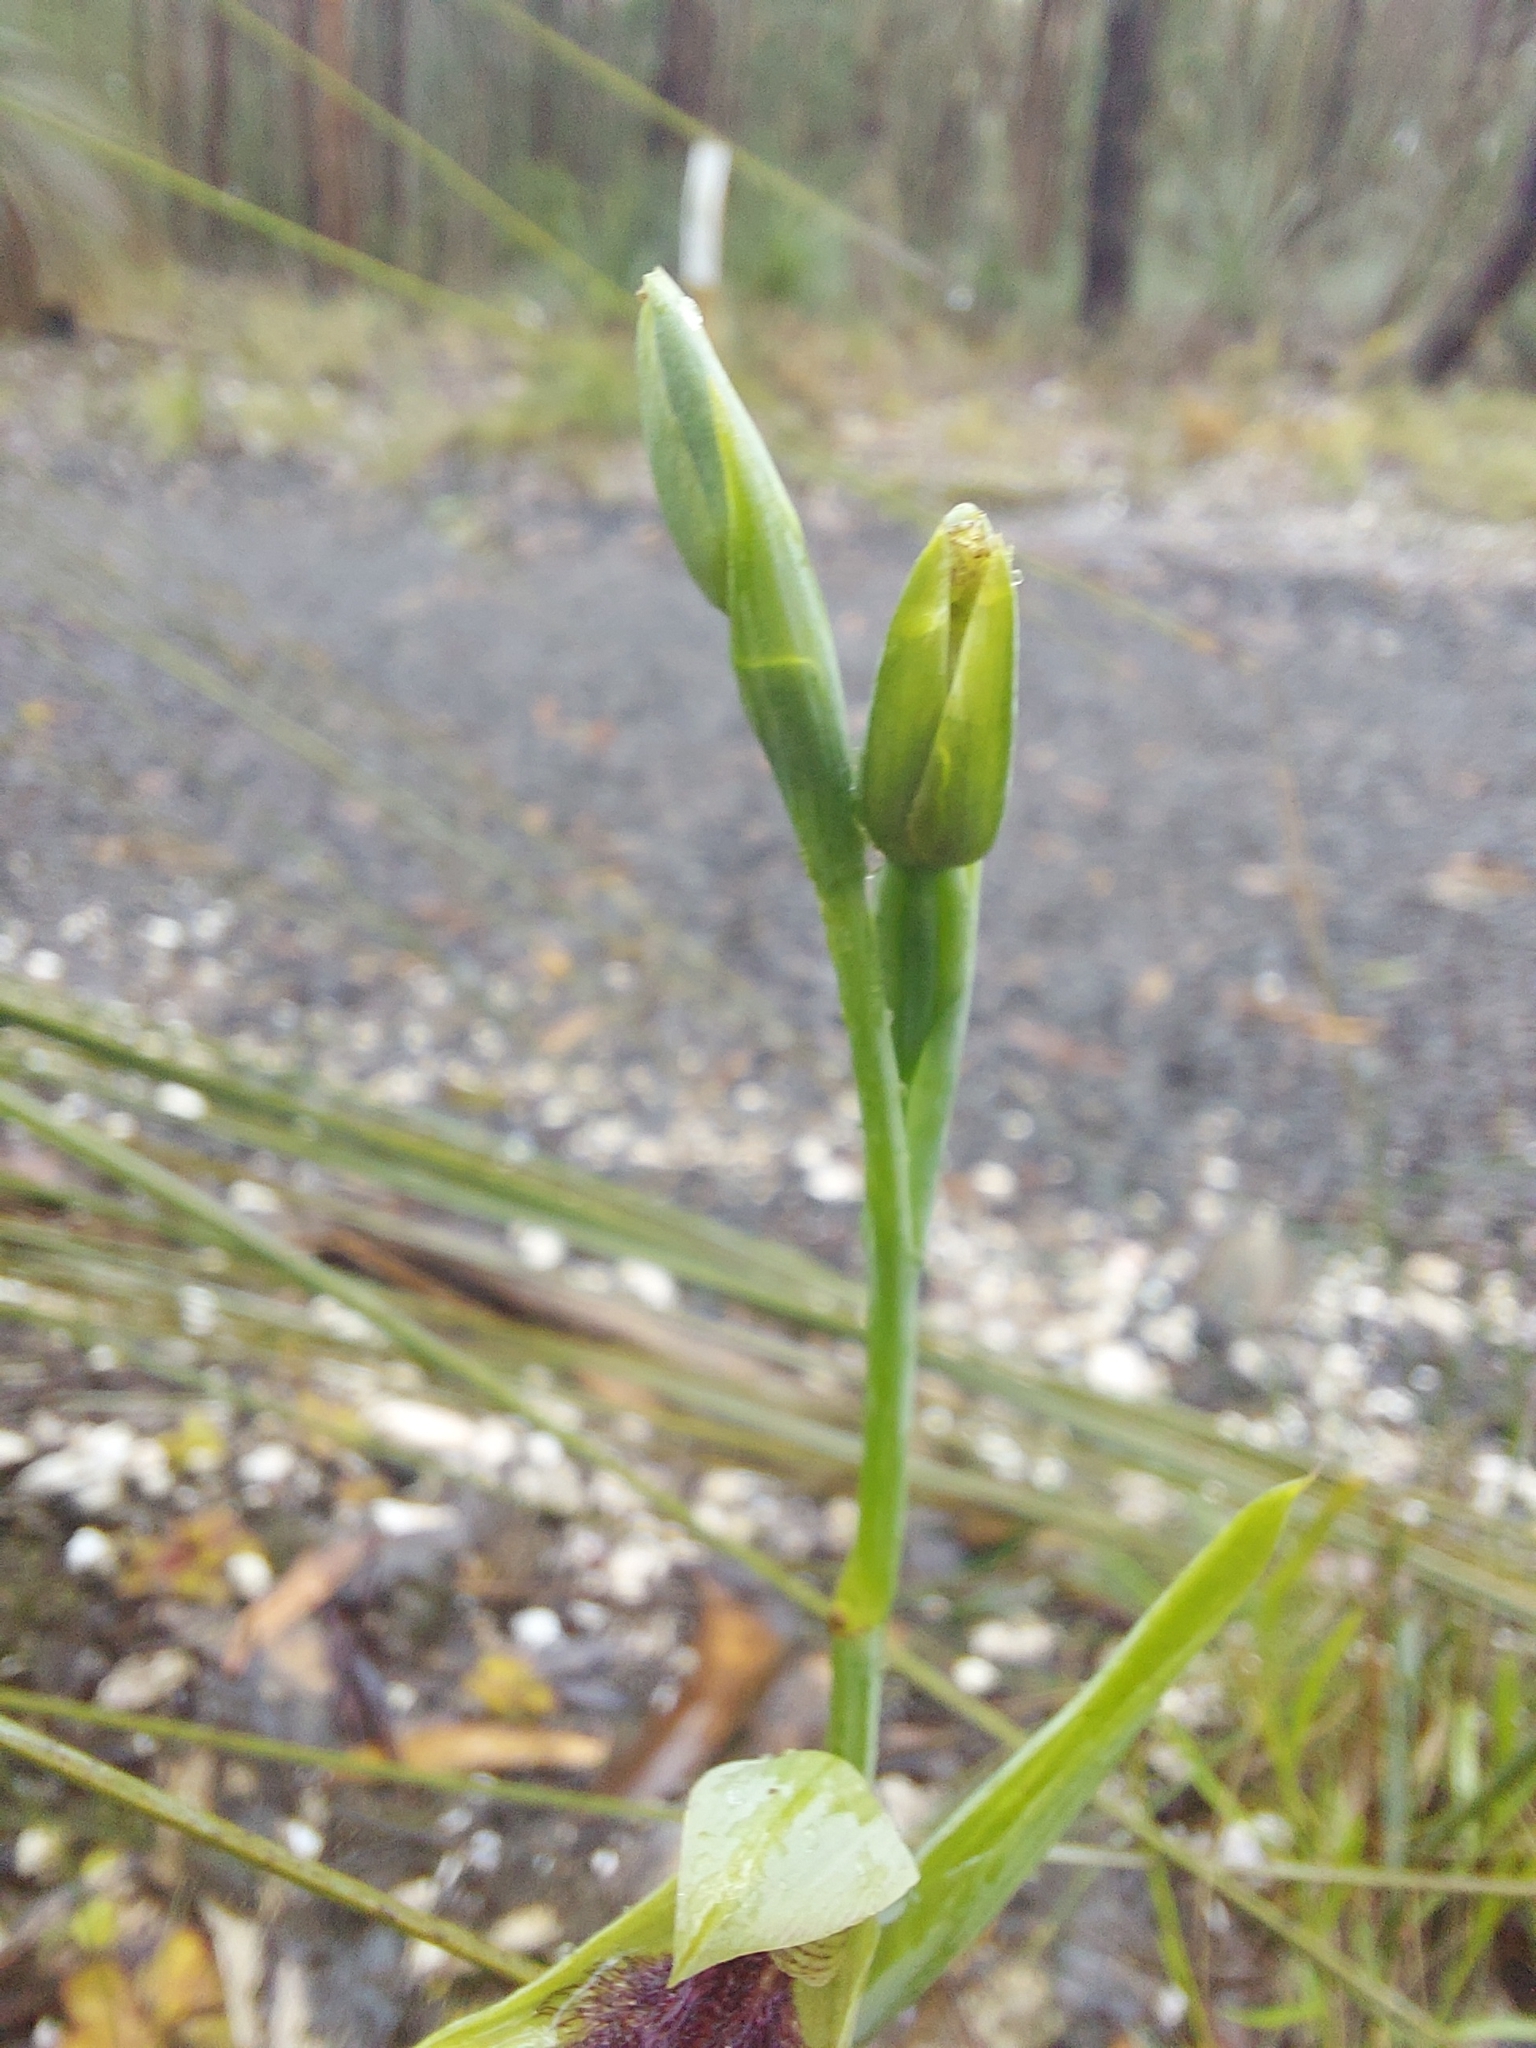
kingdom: Plantae
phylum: Tracheophyta
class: Liliopsida
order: Asparagales
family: Orchidaceae
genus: Calochilus
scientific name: Calochilus robertsonii
